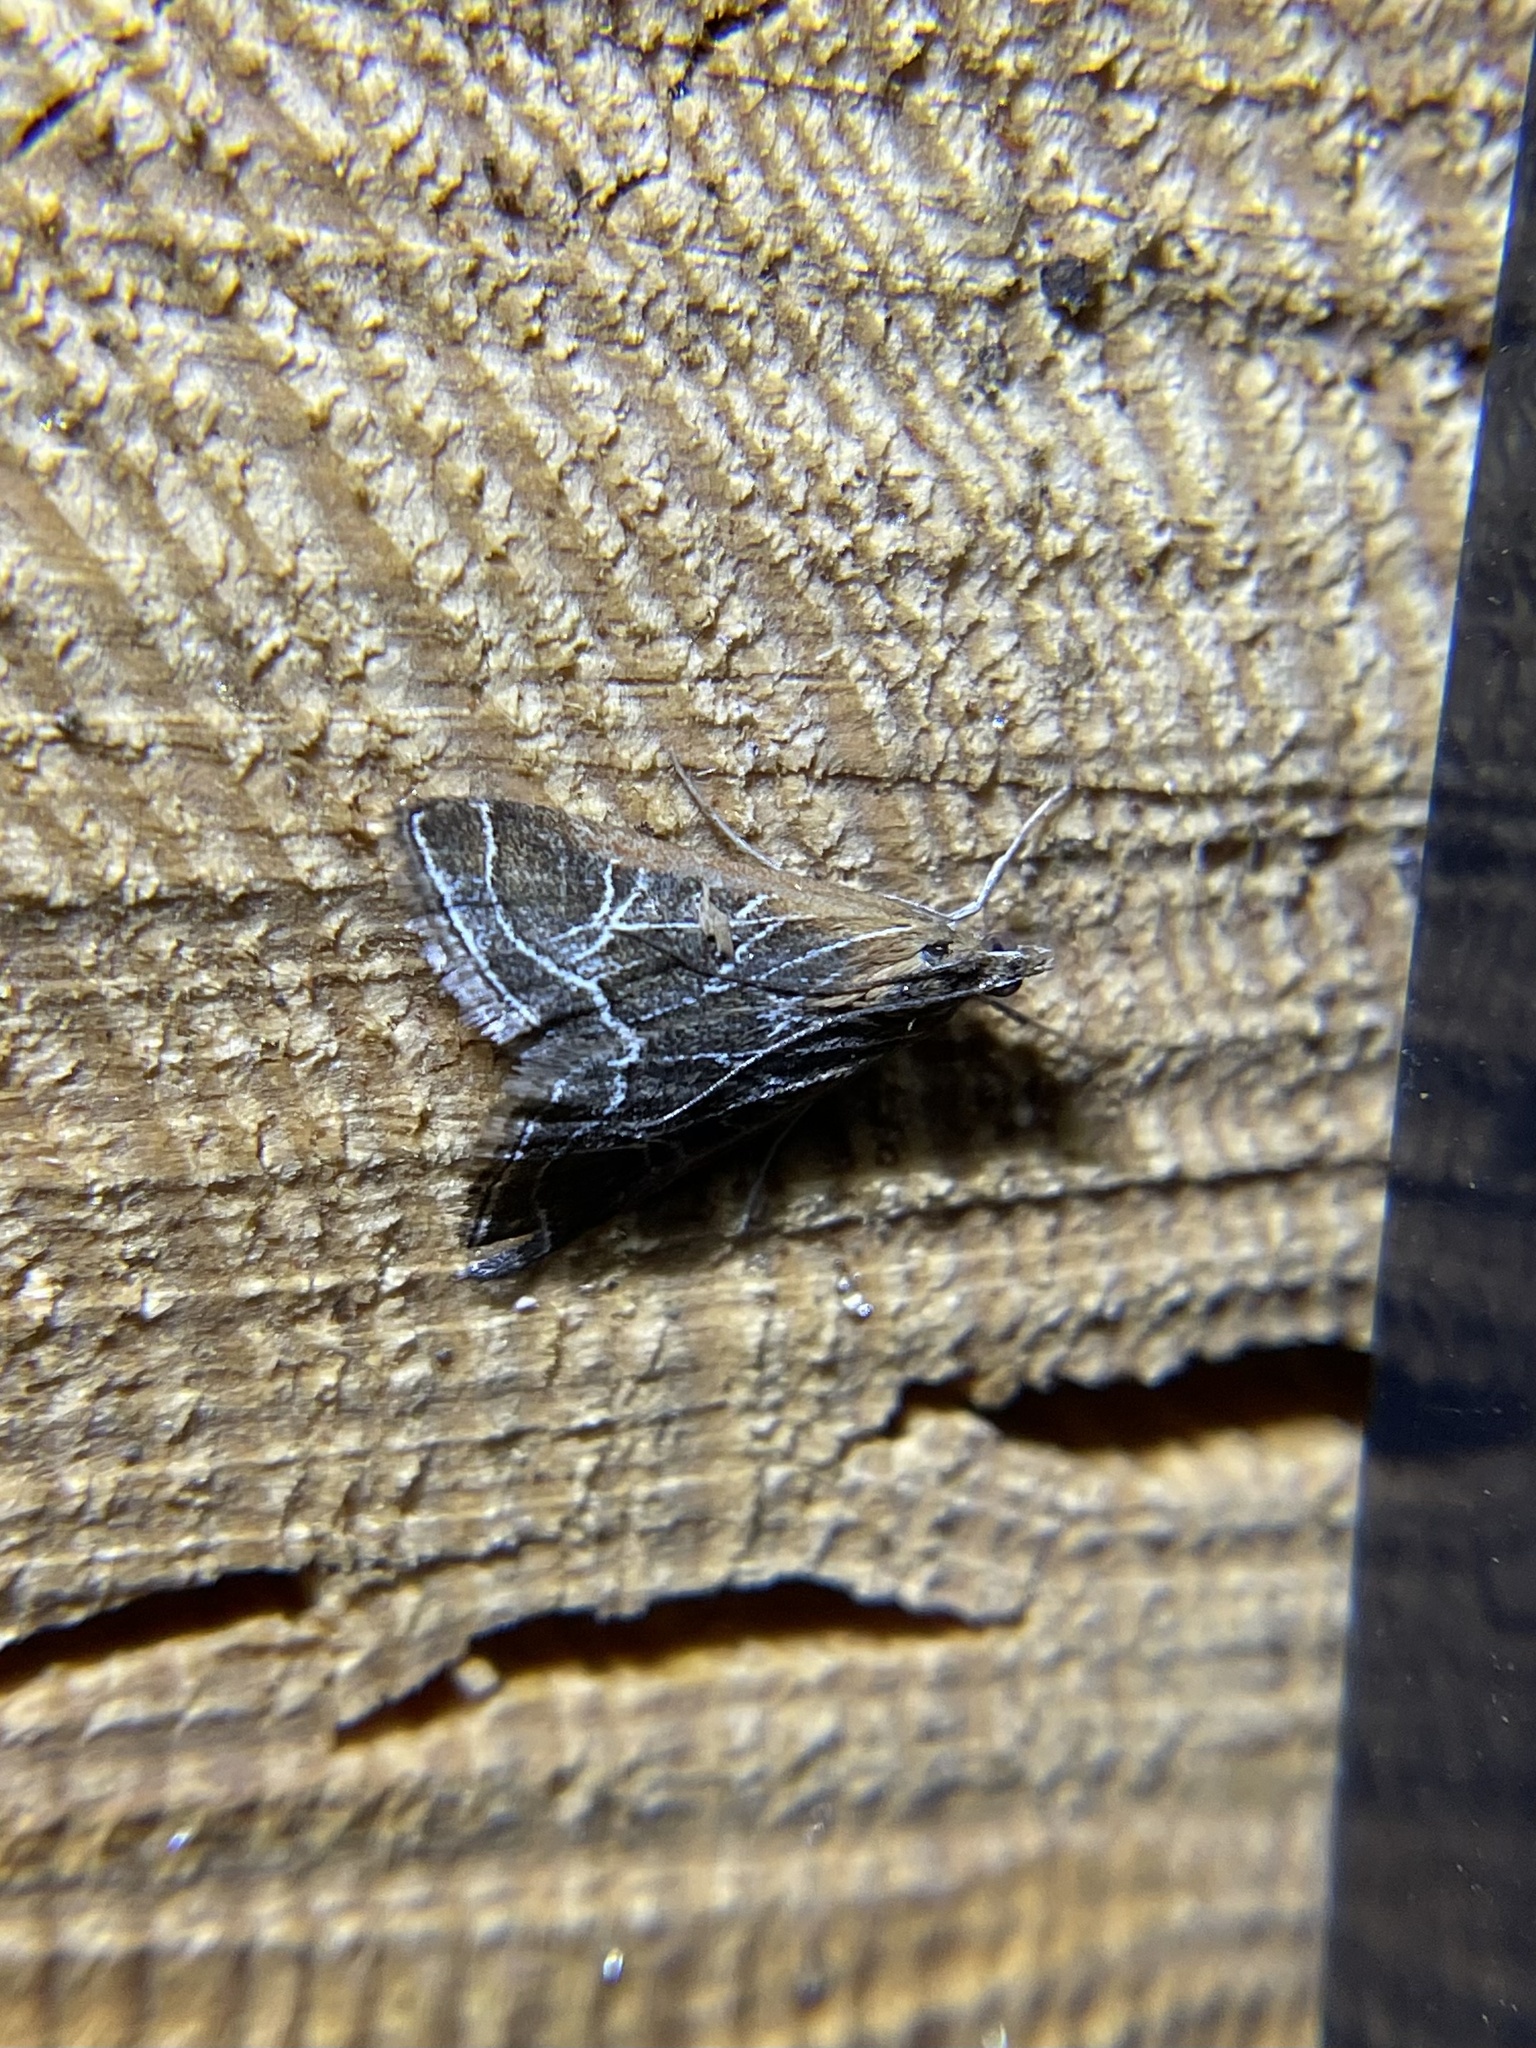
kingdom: Animalia
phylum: Arthropoda
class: Insecta
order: Lepidoptera
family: Crambidae
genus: Pyrausta
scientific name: Pyrausta nexalis
